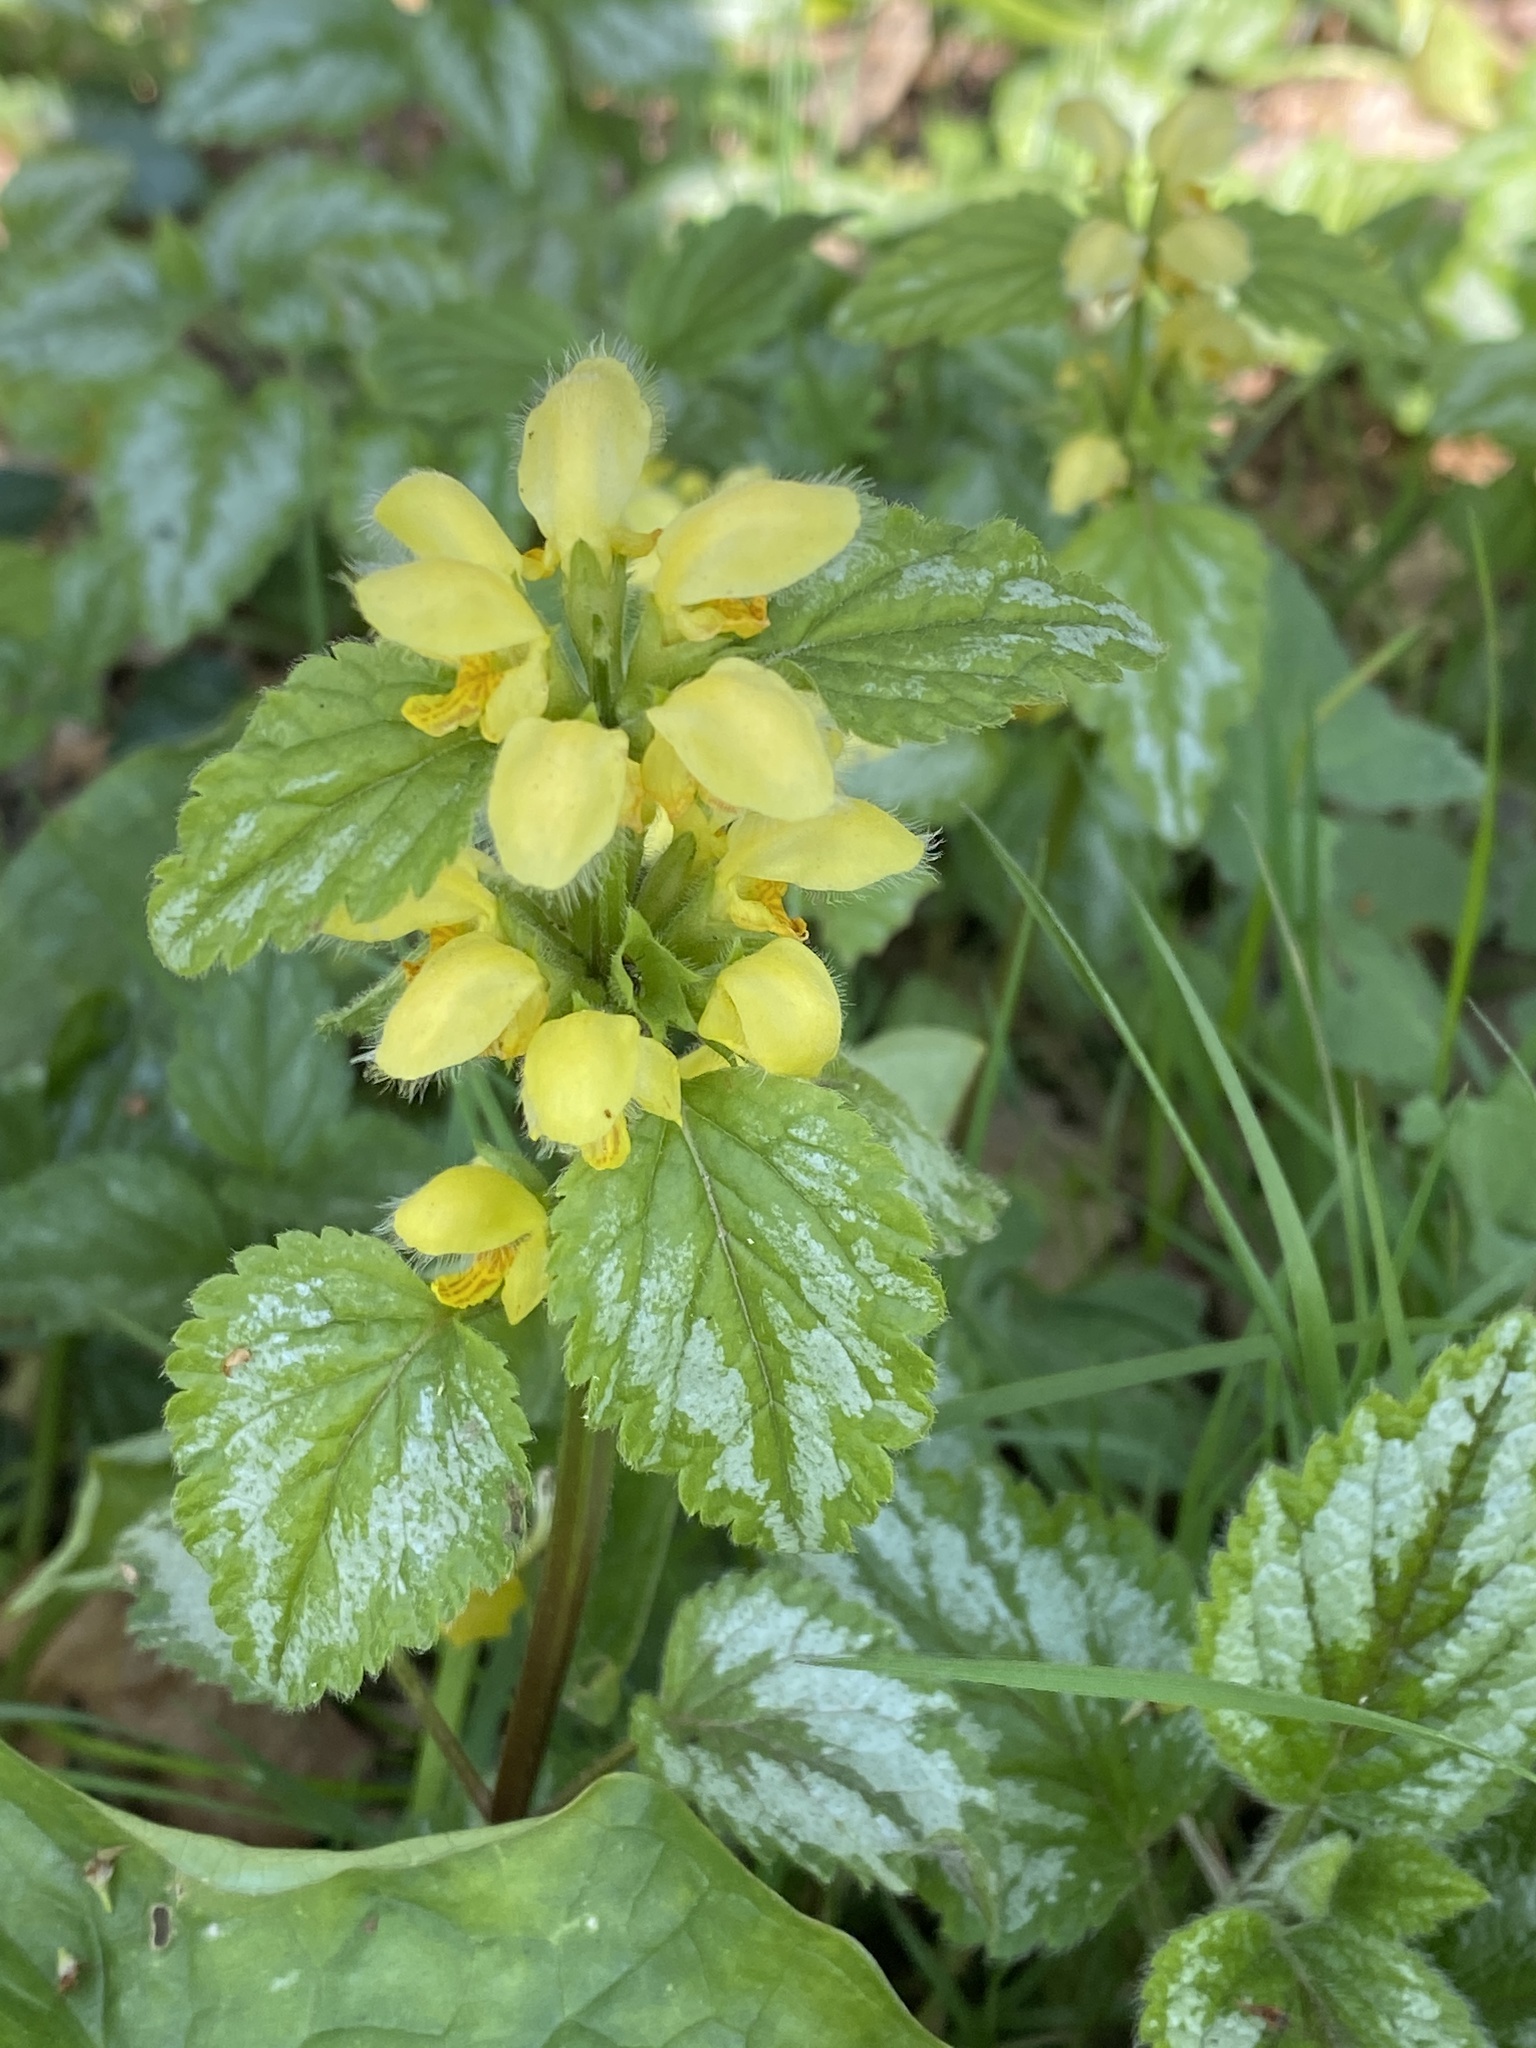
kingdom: Plantae
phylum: Tracheophyta
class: Magnoliopsida
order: Lamiales
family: Lamiaceae
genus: Lamium
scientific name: Lamium galeobdolon
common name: Yellow archangel
